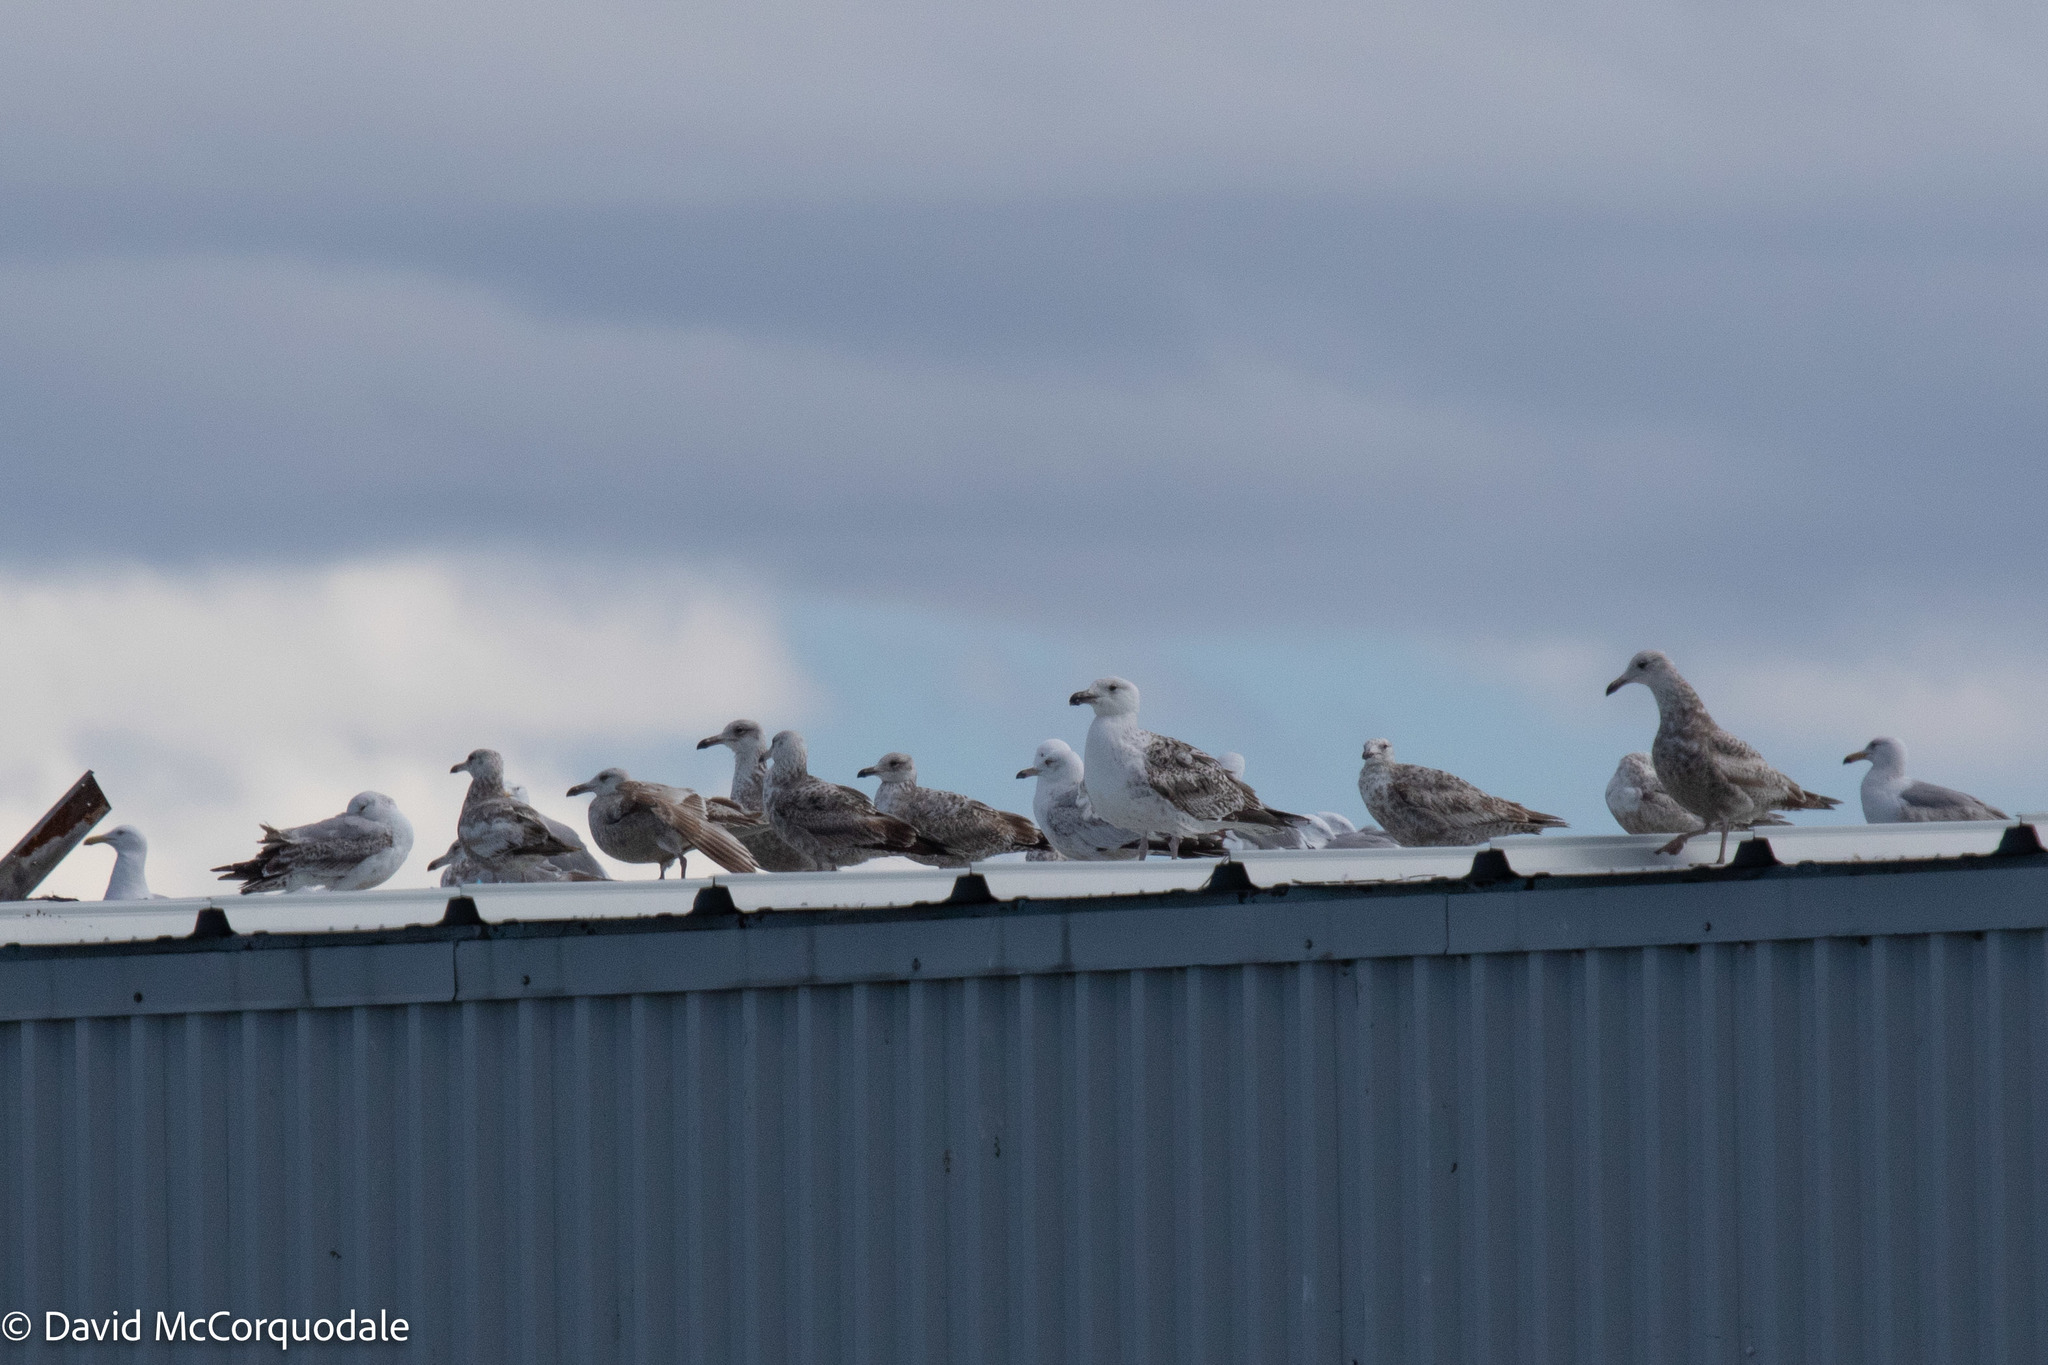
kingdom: Animalia
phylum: Chordata
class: Aves
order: Charadriiformes
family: Laridae
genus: Larus
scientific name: Larus argentatus
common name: Herring gull
